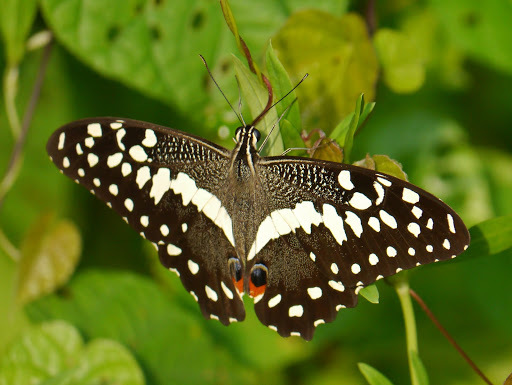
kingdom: Animalia
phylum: Arthropoda
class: Insecta
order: Lepidoptera
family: Papilionidae
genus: Papilio
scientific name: Papilio demodocus
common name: Christmas butterfly
